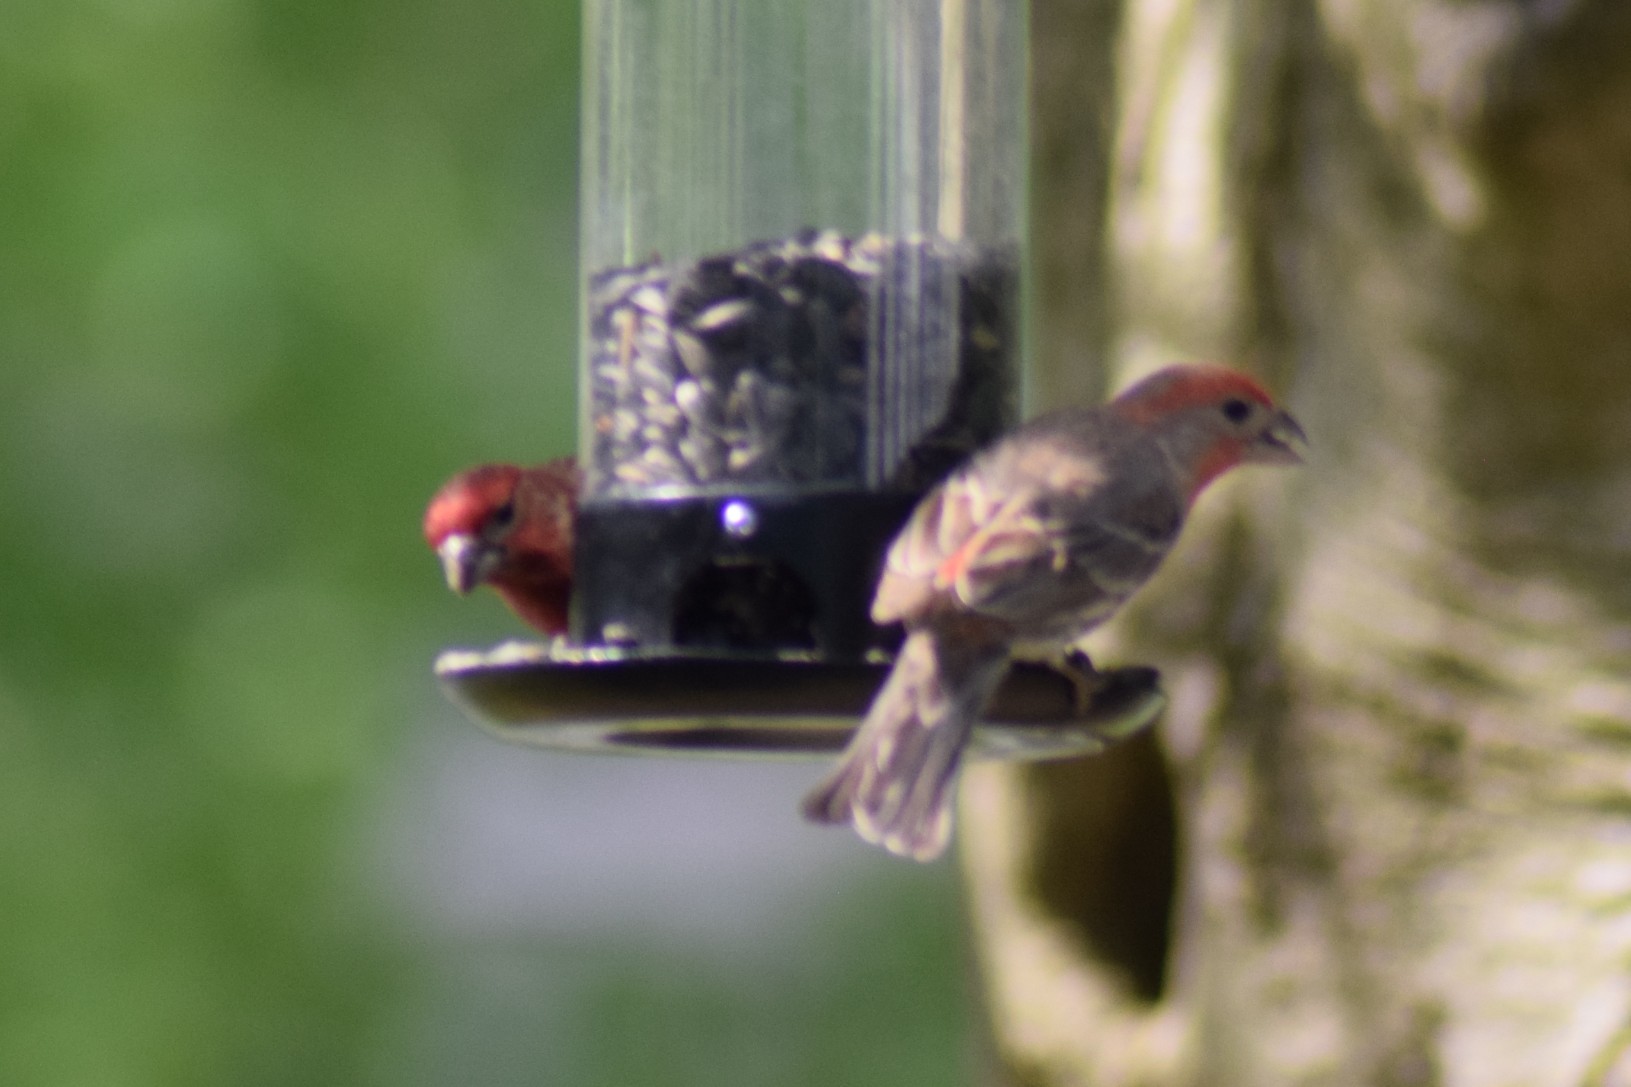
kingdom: Animalia
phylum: Chordata
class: Aves
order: Passeriformes
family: Fringillidae
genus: Haemorhous
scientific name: Haemorhous mexicanus
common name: House finch
